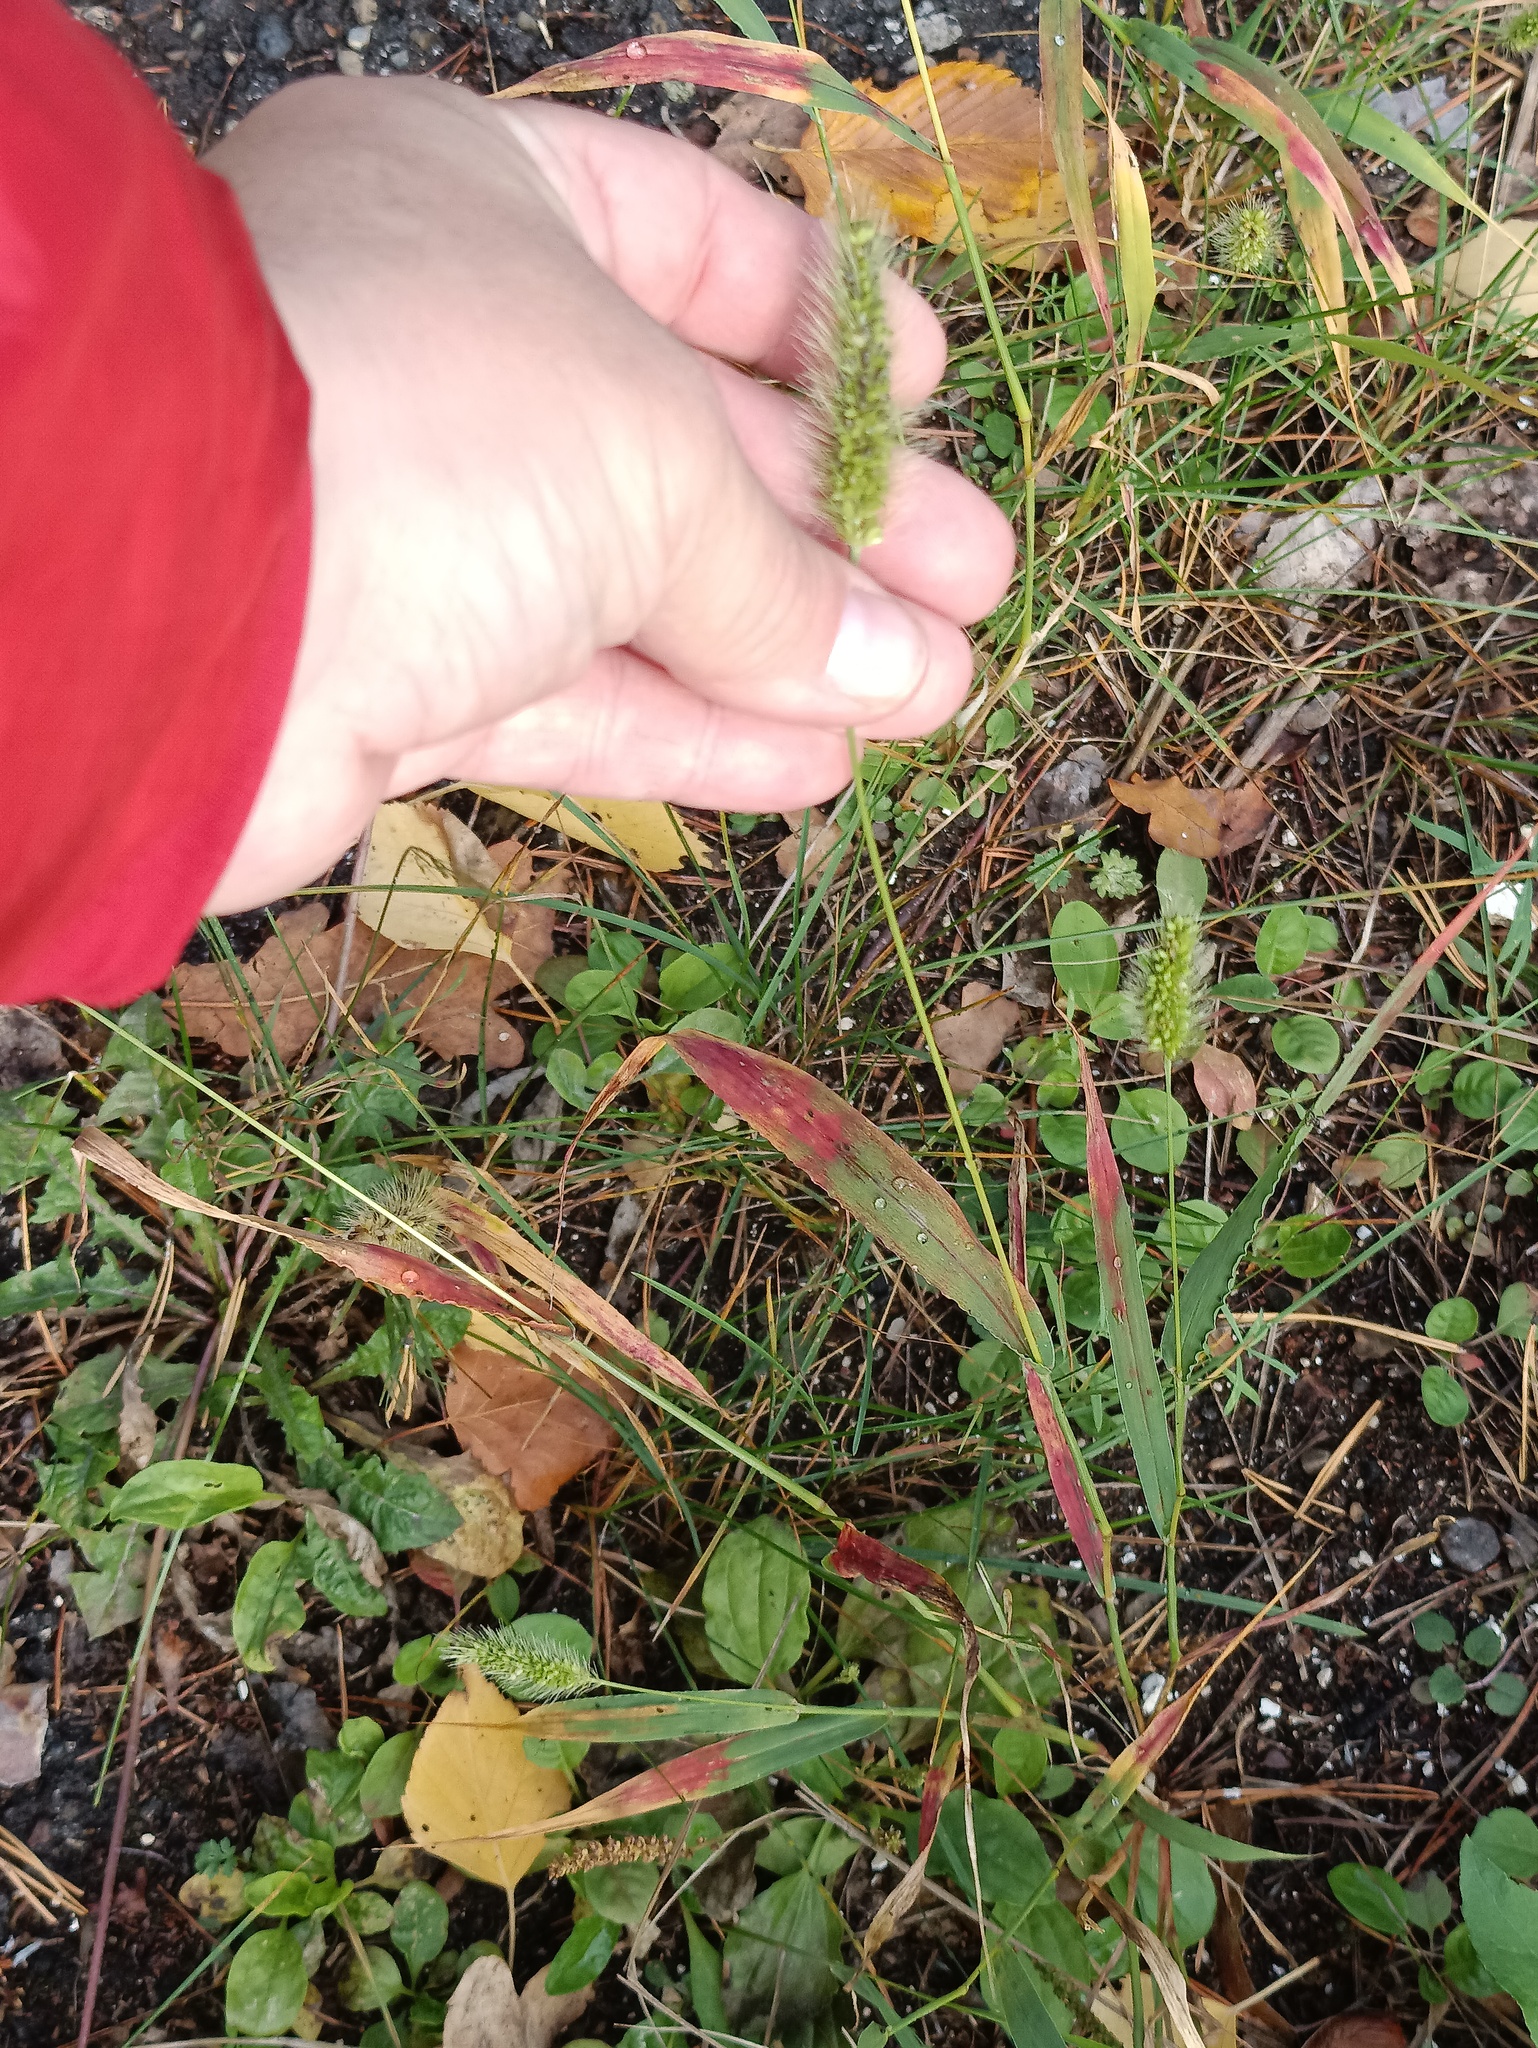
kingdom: Plantae
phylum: Tracheophyta
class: Liliopsida
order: Poales
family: Poaceae
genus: Setaria
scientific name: Setaria viridis
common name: Green bristlegrass
